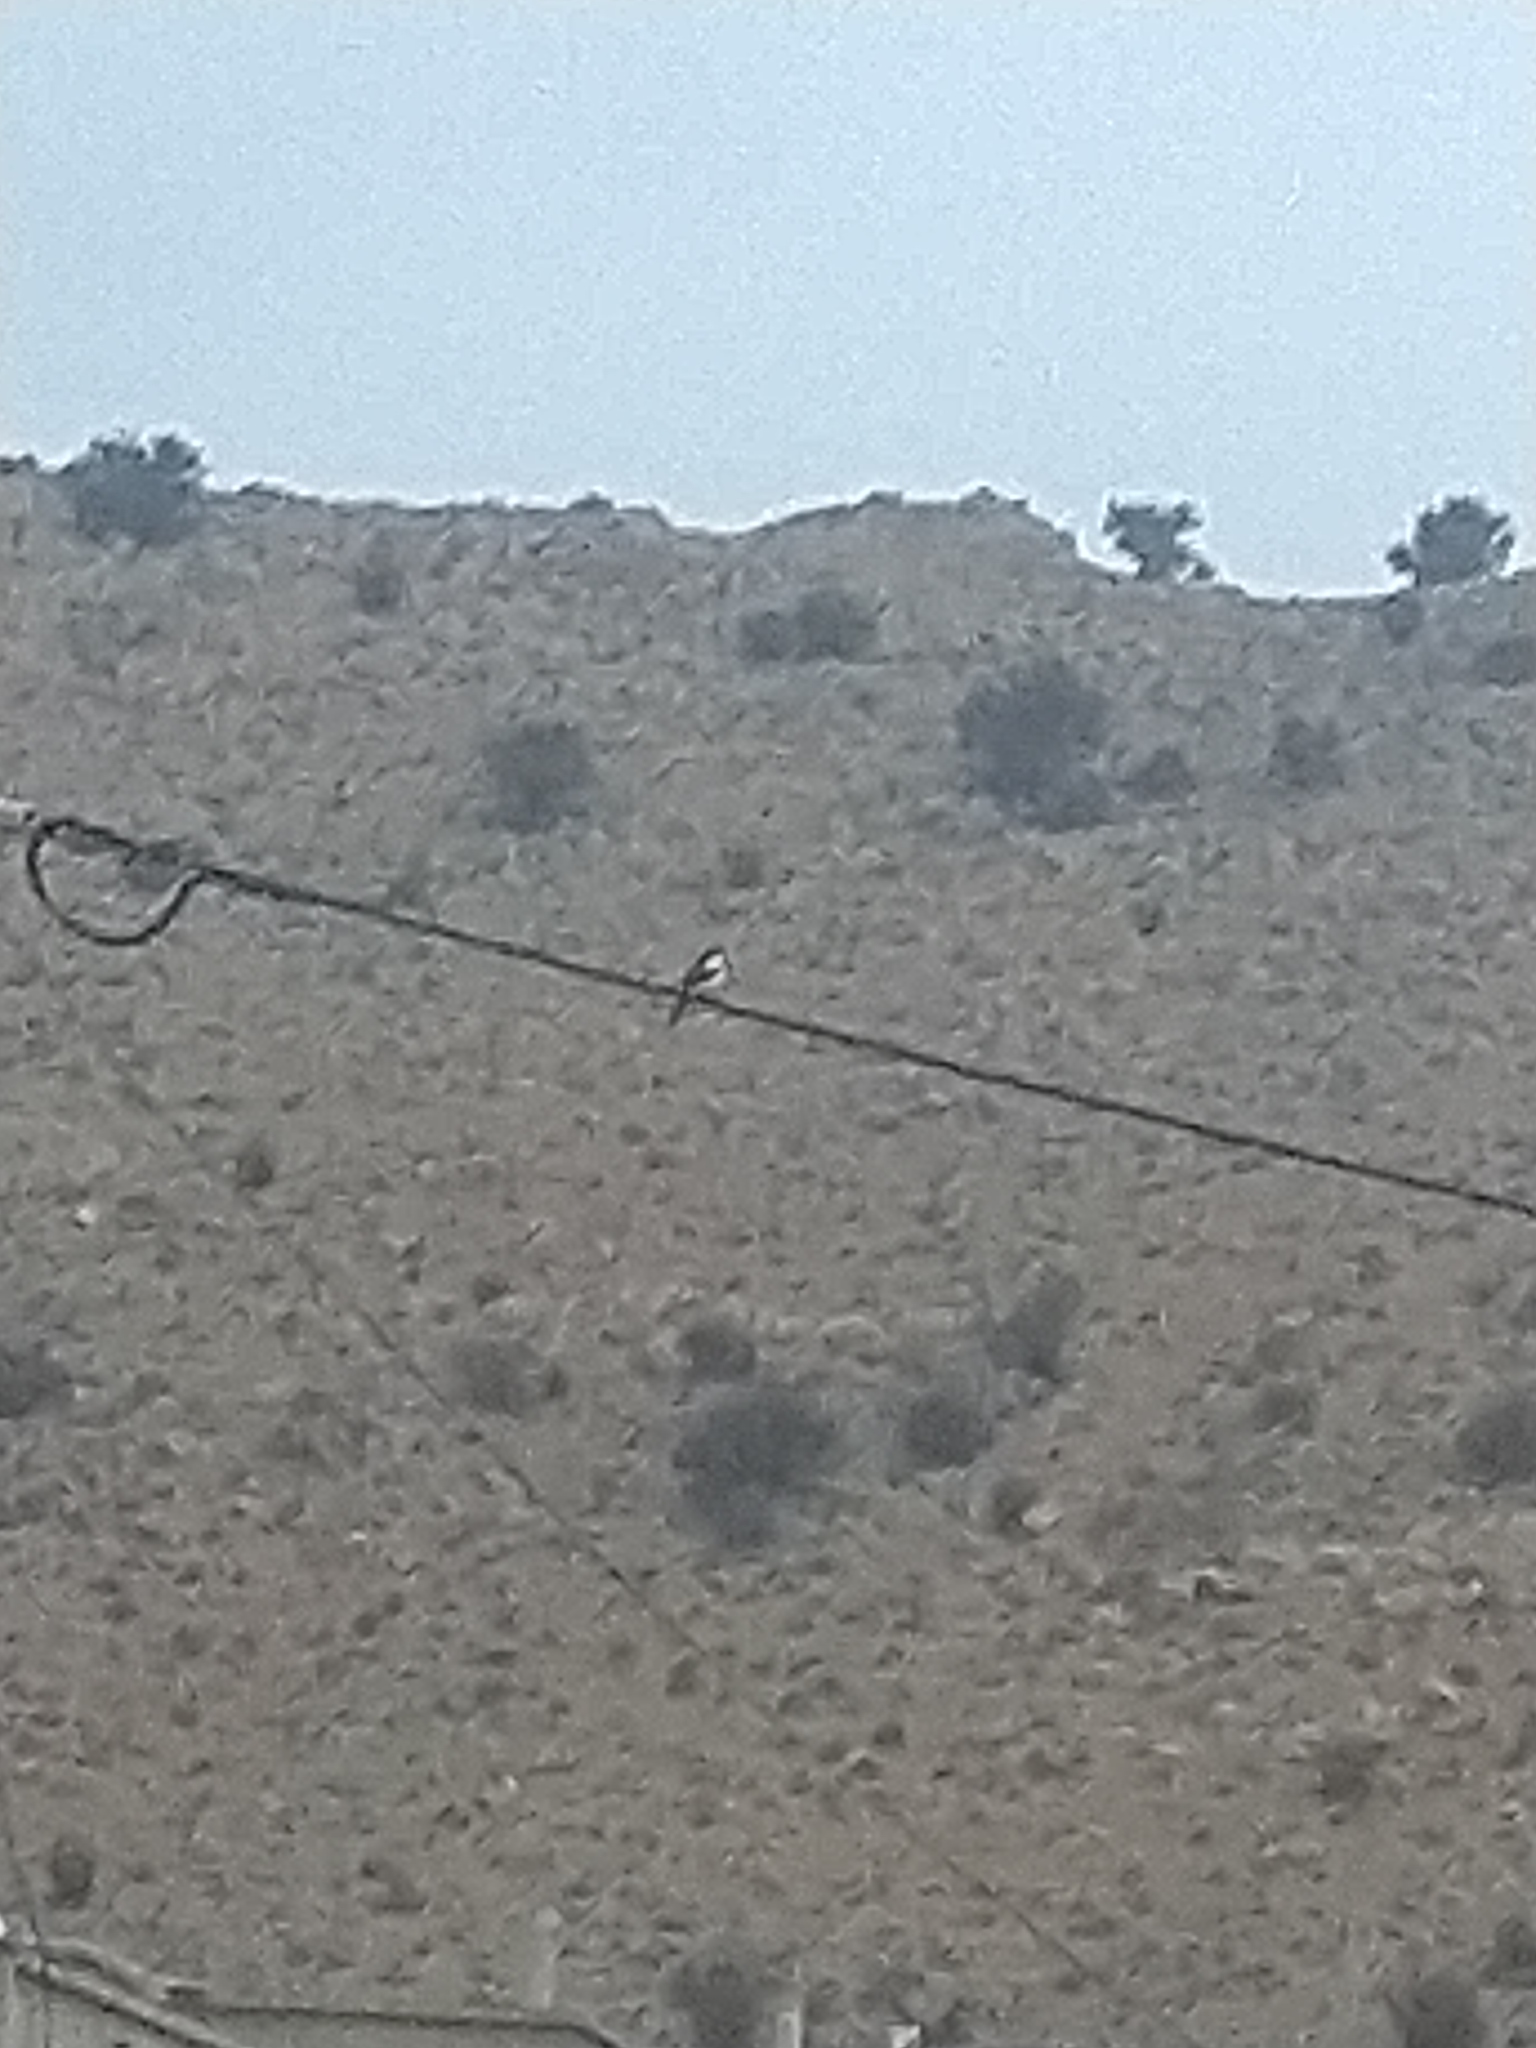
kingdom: Animalia
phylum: Chordata
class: Aves
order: Passeriformes
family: Corvidae
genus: Pica
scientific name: Pica pica
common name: Eurasian magpie
